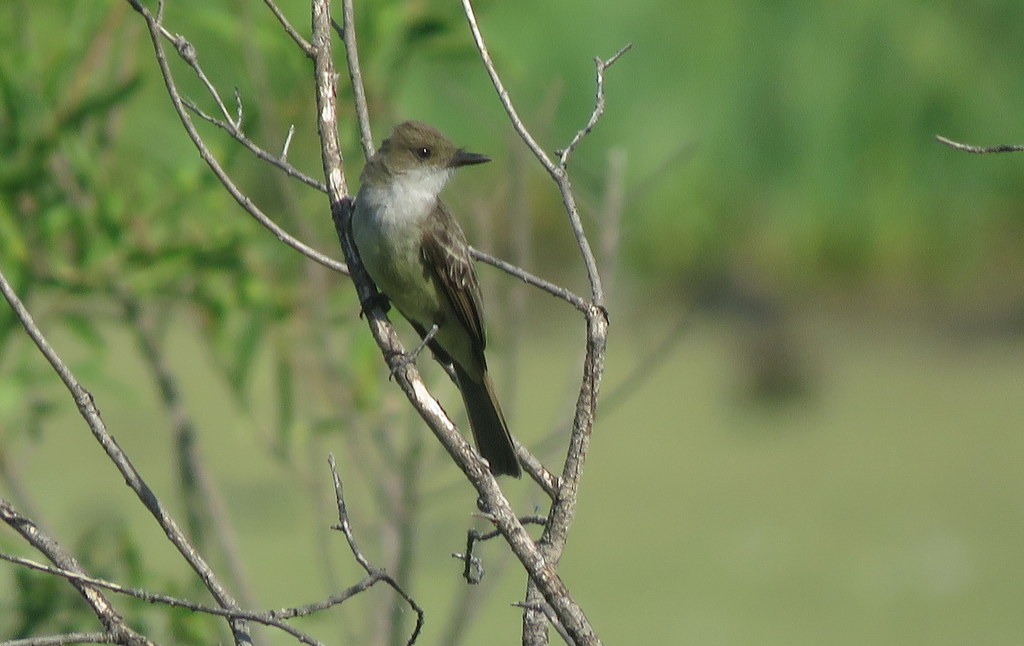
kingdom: Animalia
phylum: Chordata
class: Aves
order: Passeriformes
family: Tyrannidae
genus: Myiarchus
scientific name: Myiarchus swainsoni
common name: Swainson's flycatcher
